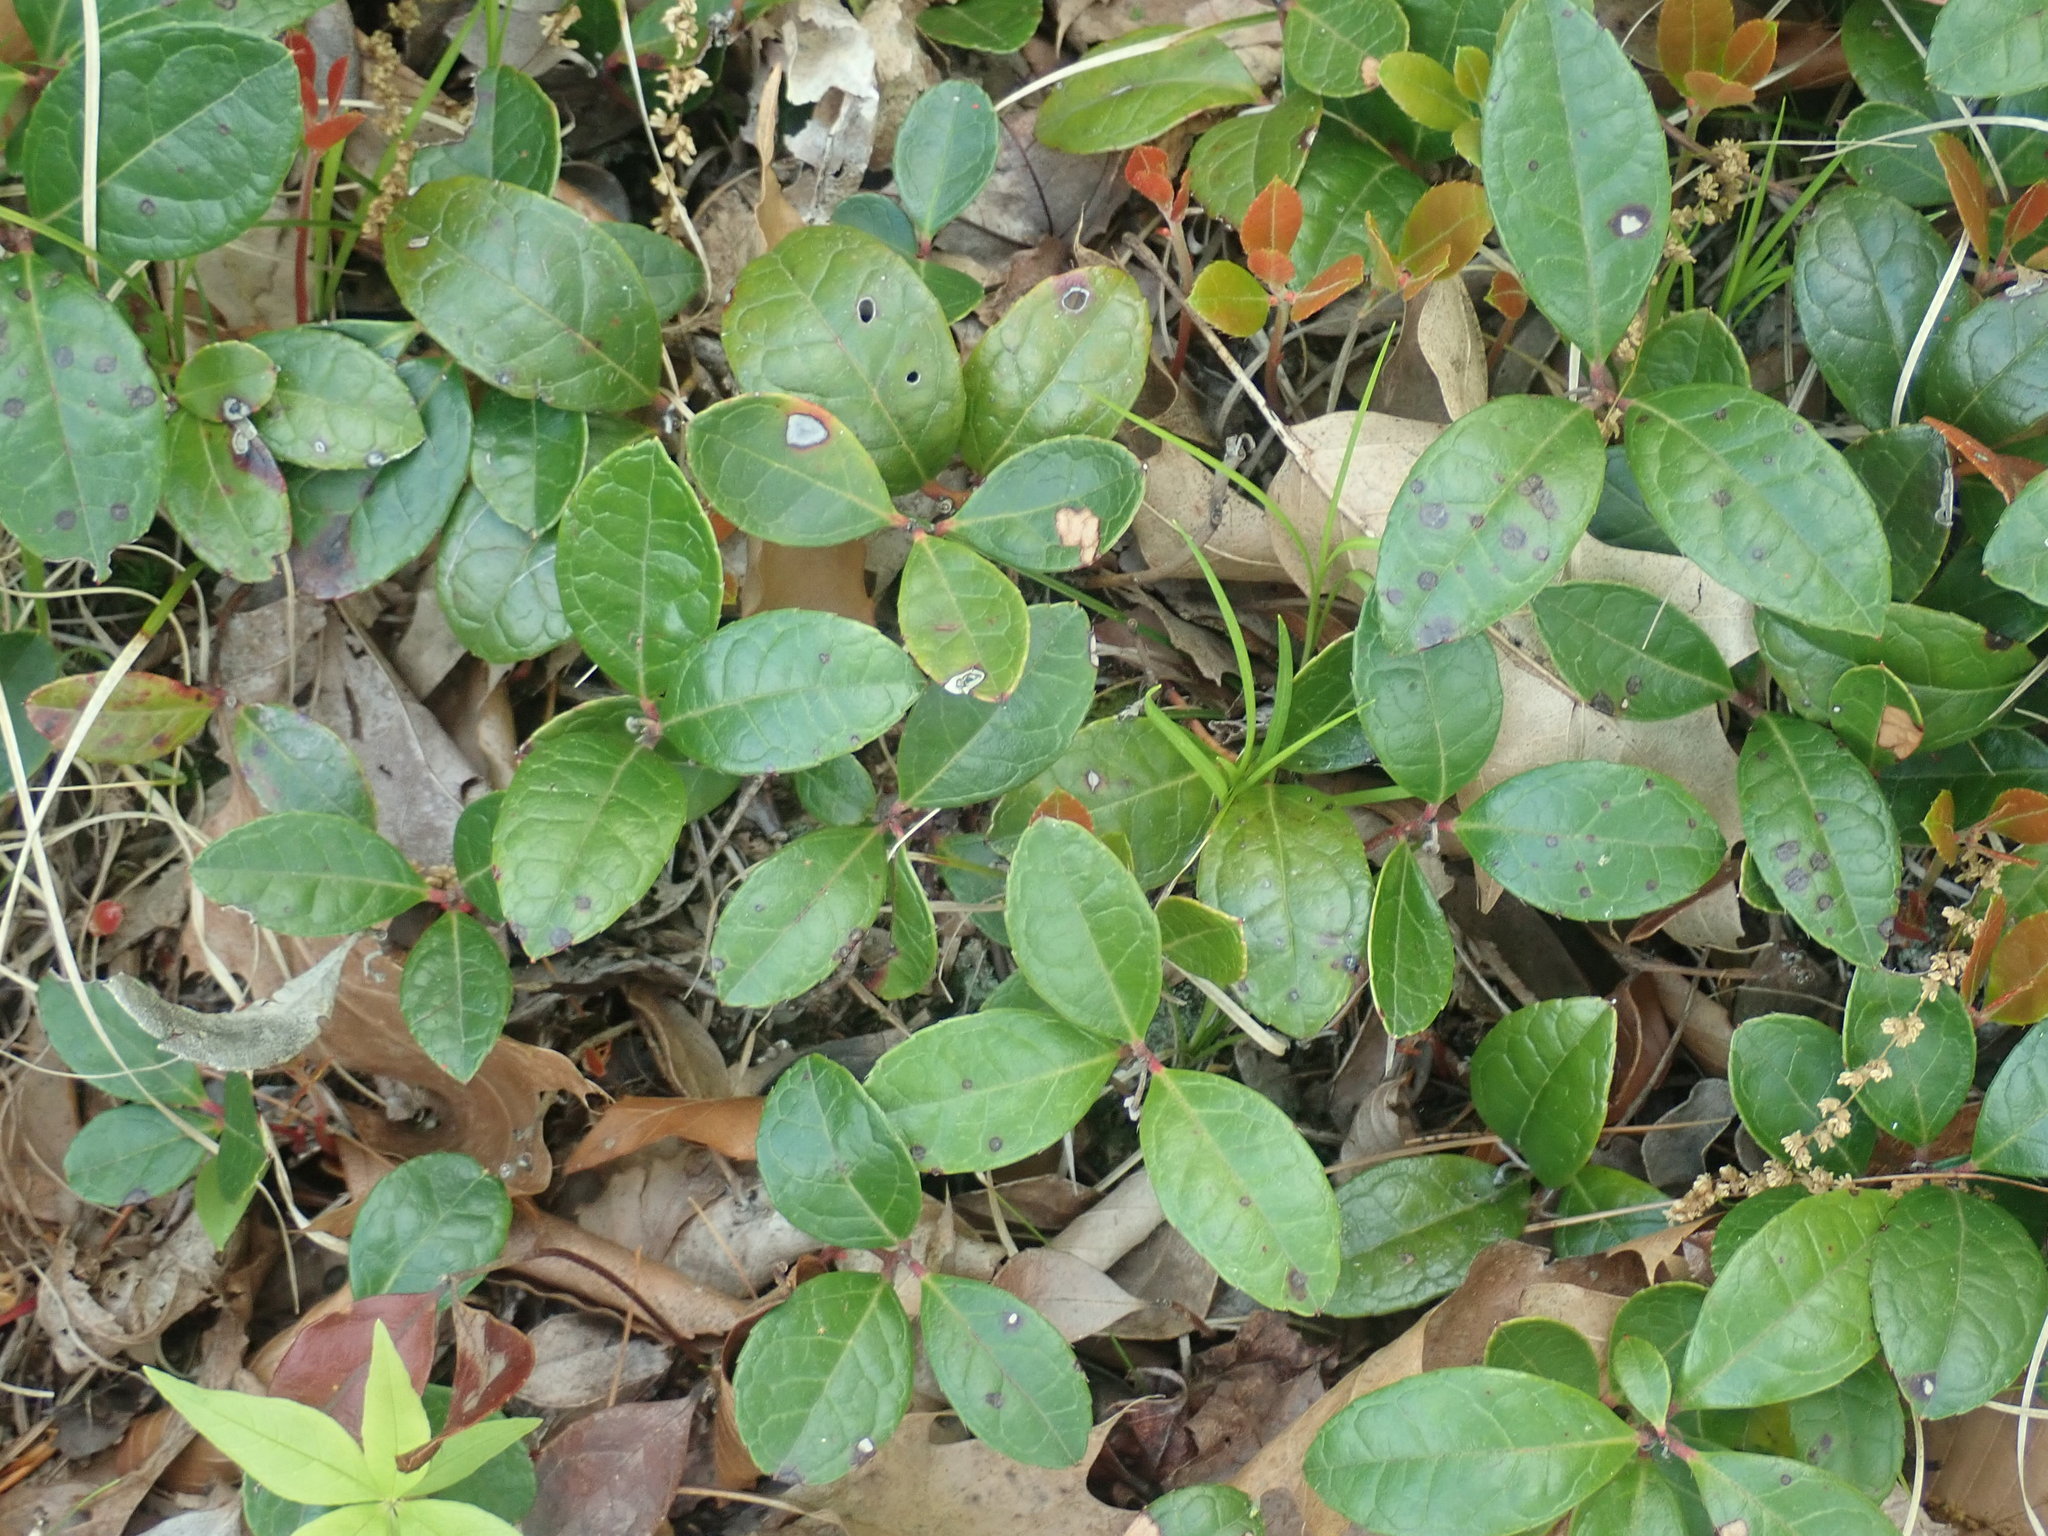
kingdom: Plantae
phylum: Tracheophyta
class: Magnoliopsida
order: Ericales
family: Ericaceae
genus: Gaultheria
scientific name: Gaultheria procumbens
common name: Checkerberry
